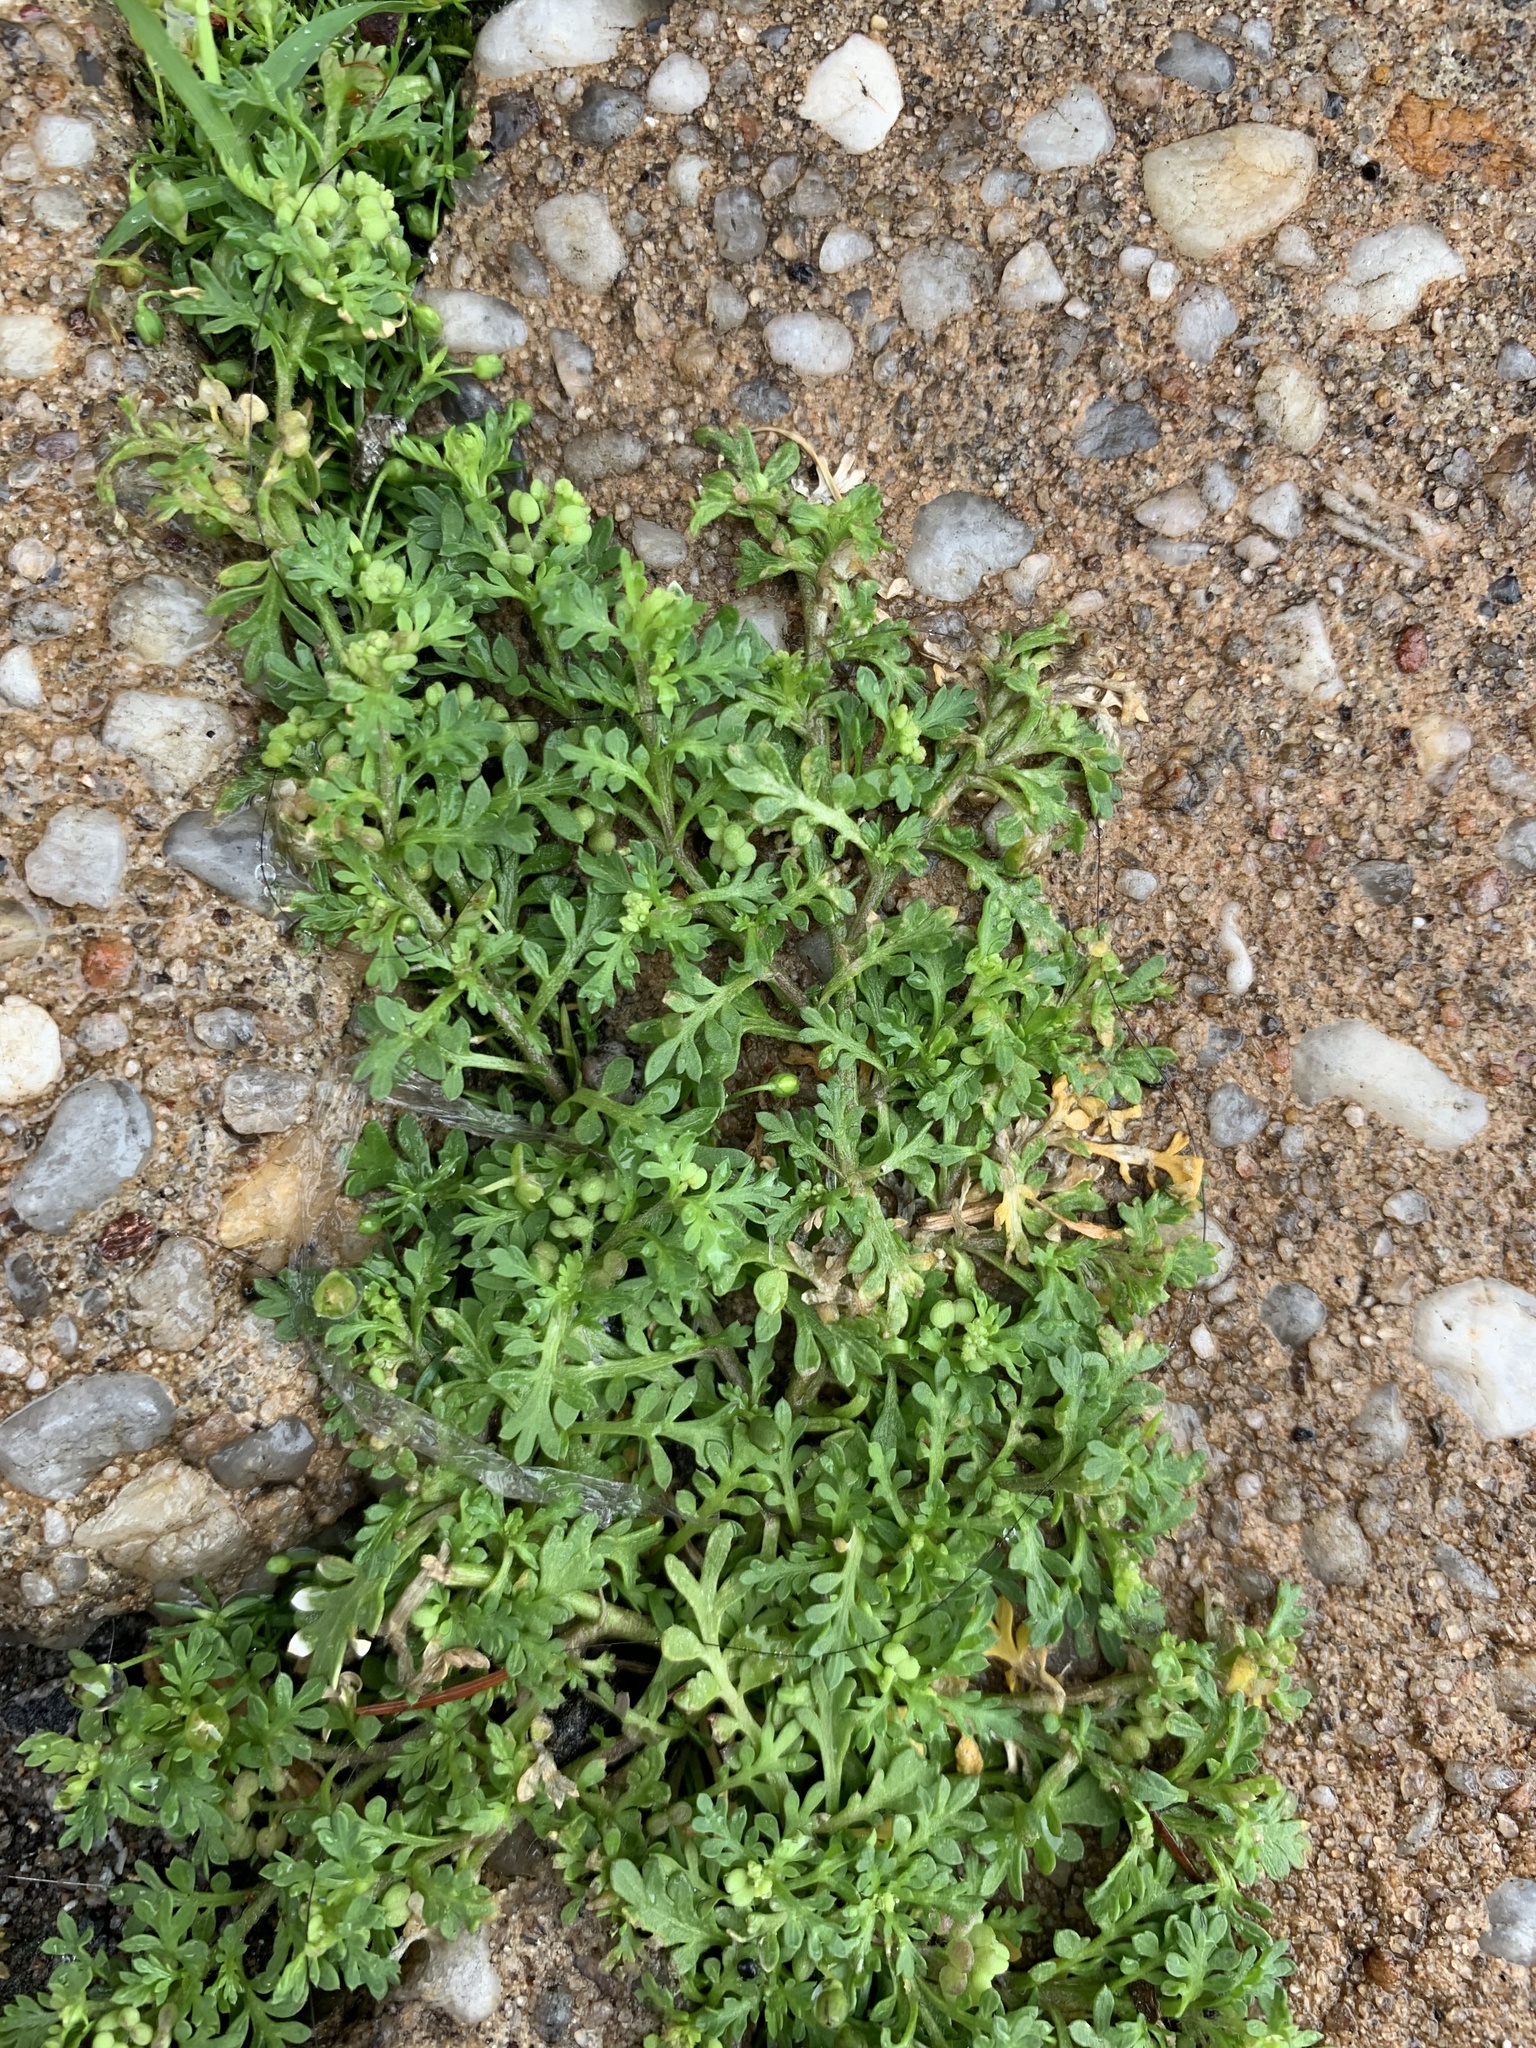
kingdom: Plantae
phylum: Tracheophyta
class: Magnoliopsida
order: Brassicales
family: Brassicaceae
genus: Lepidium
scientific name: Lepidium didymum
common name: Lesser swinecress
